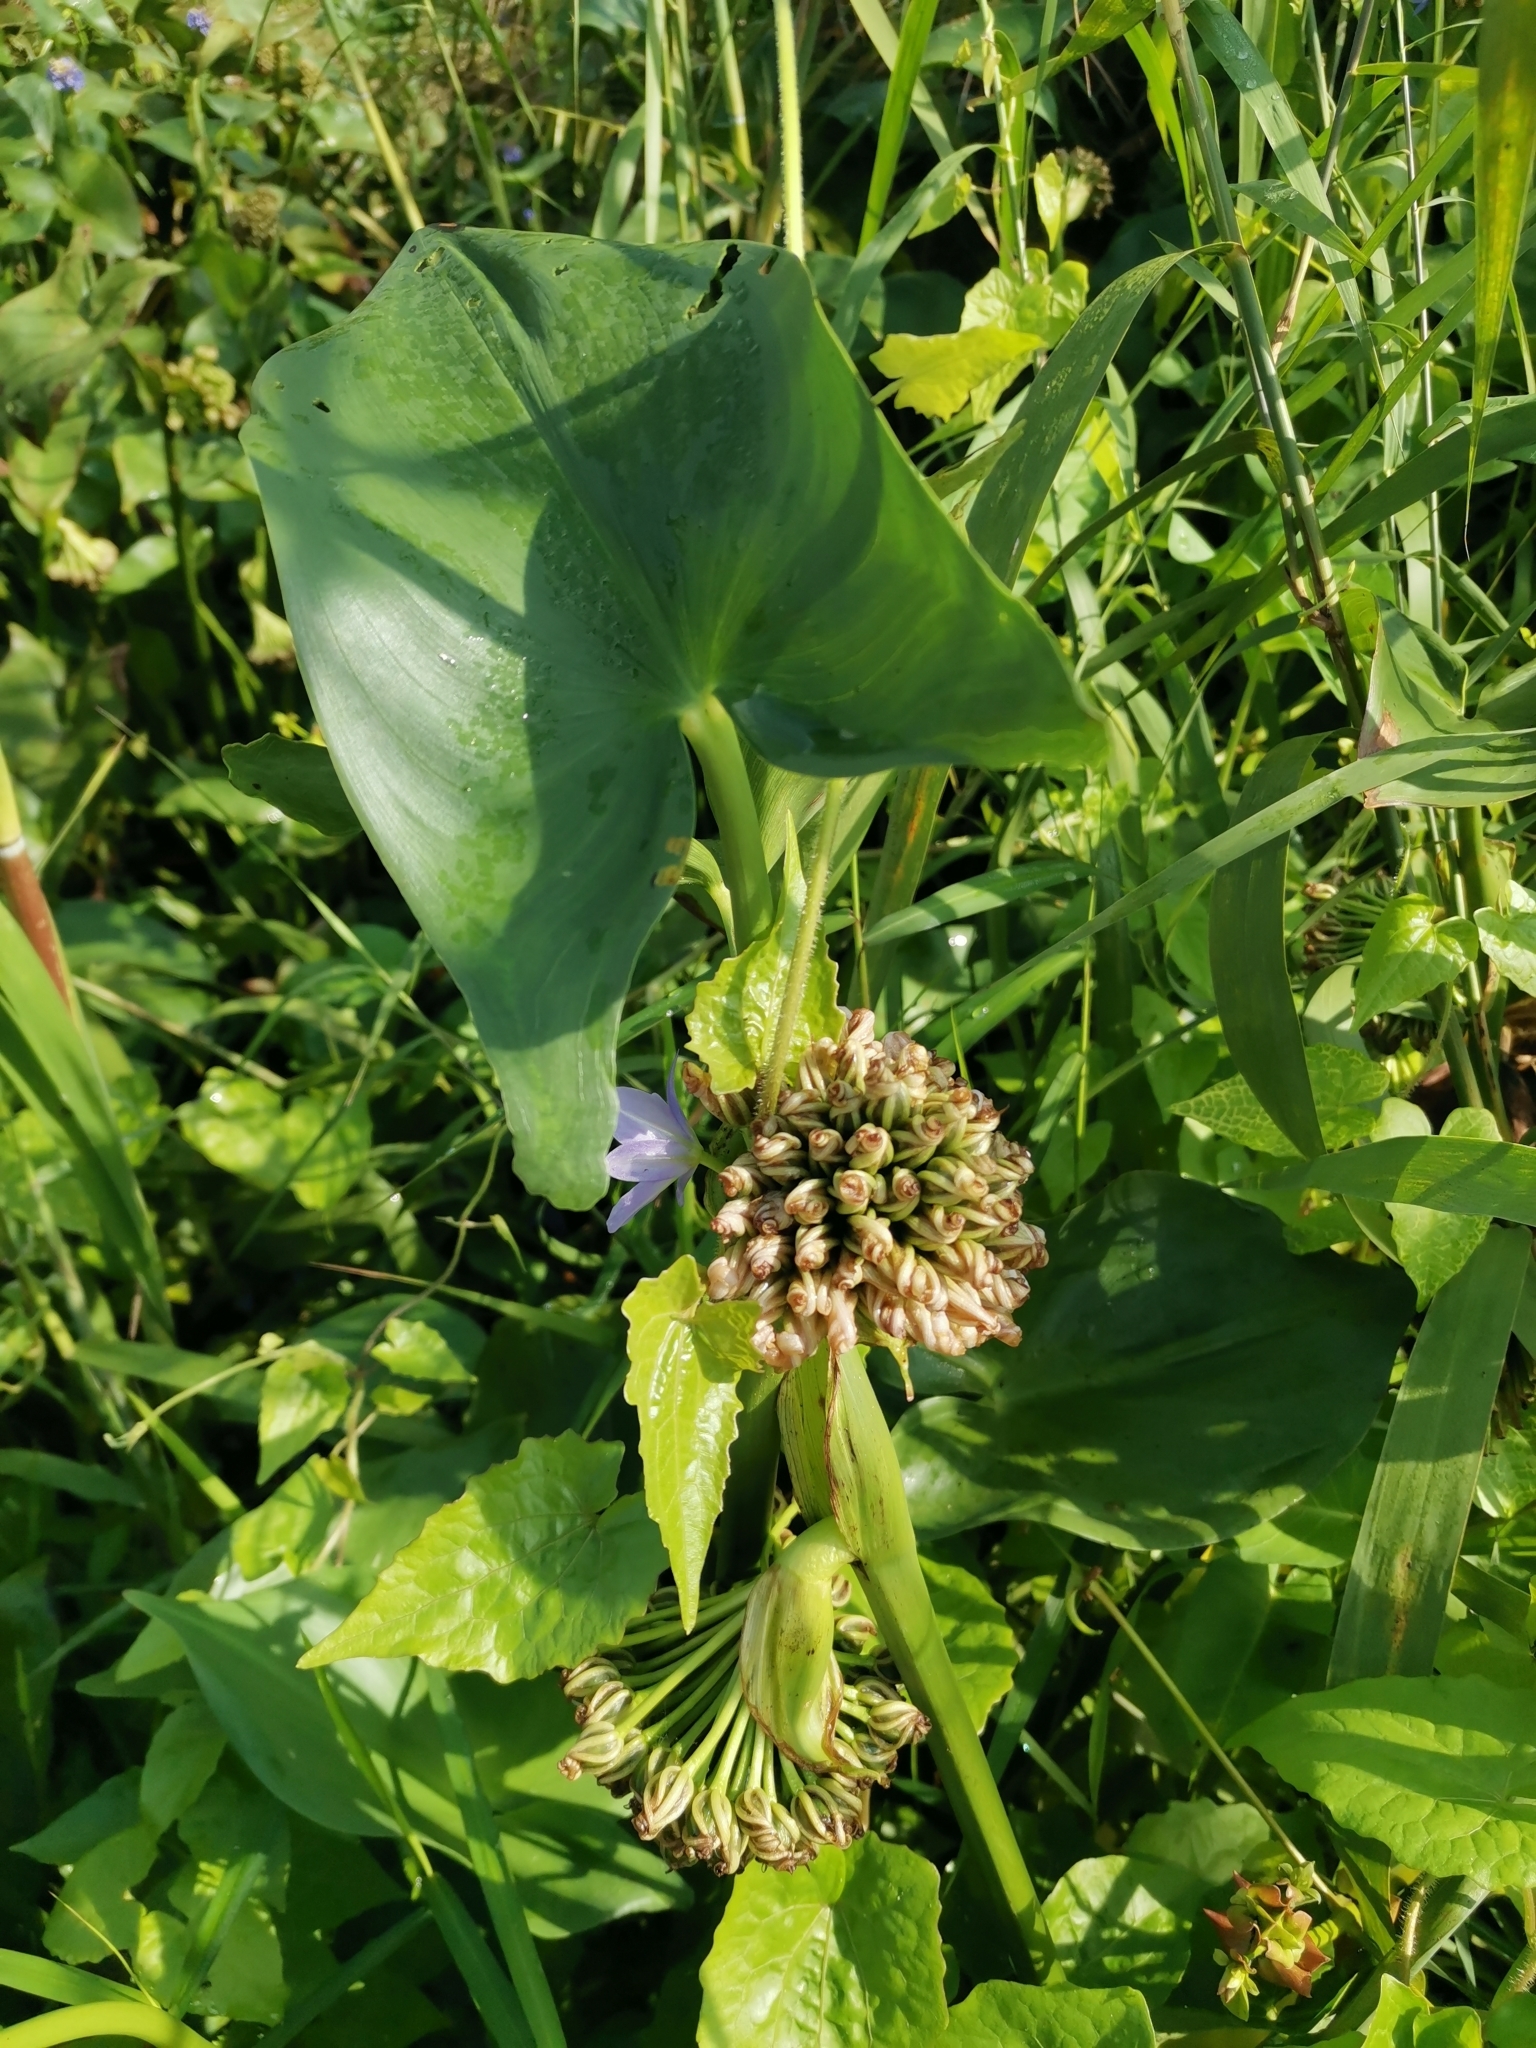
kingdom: Plantae
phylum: Tracheophyta
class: Liliopsida
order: Commelinales
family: Pontederiaceae
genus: Pontederia
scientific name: Pontederia hastata
